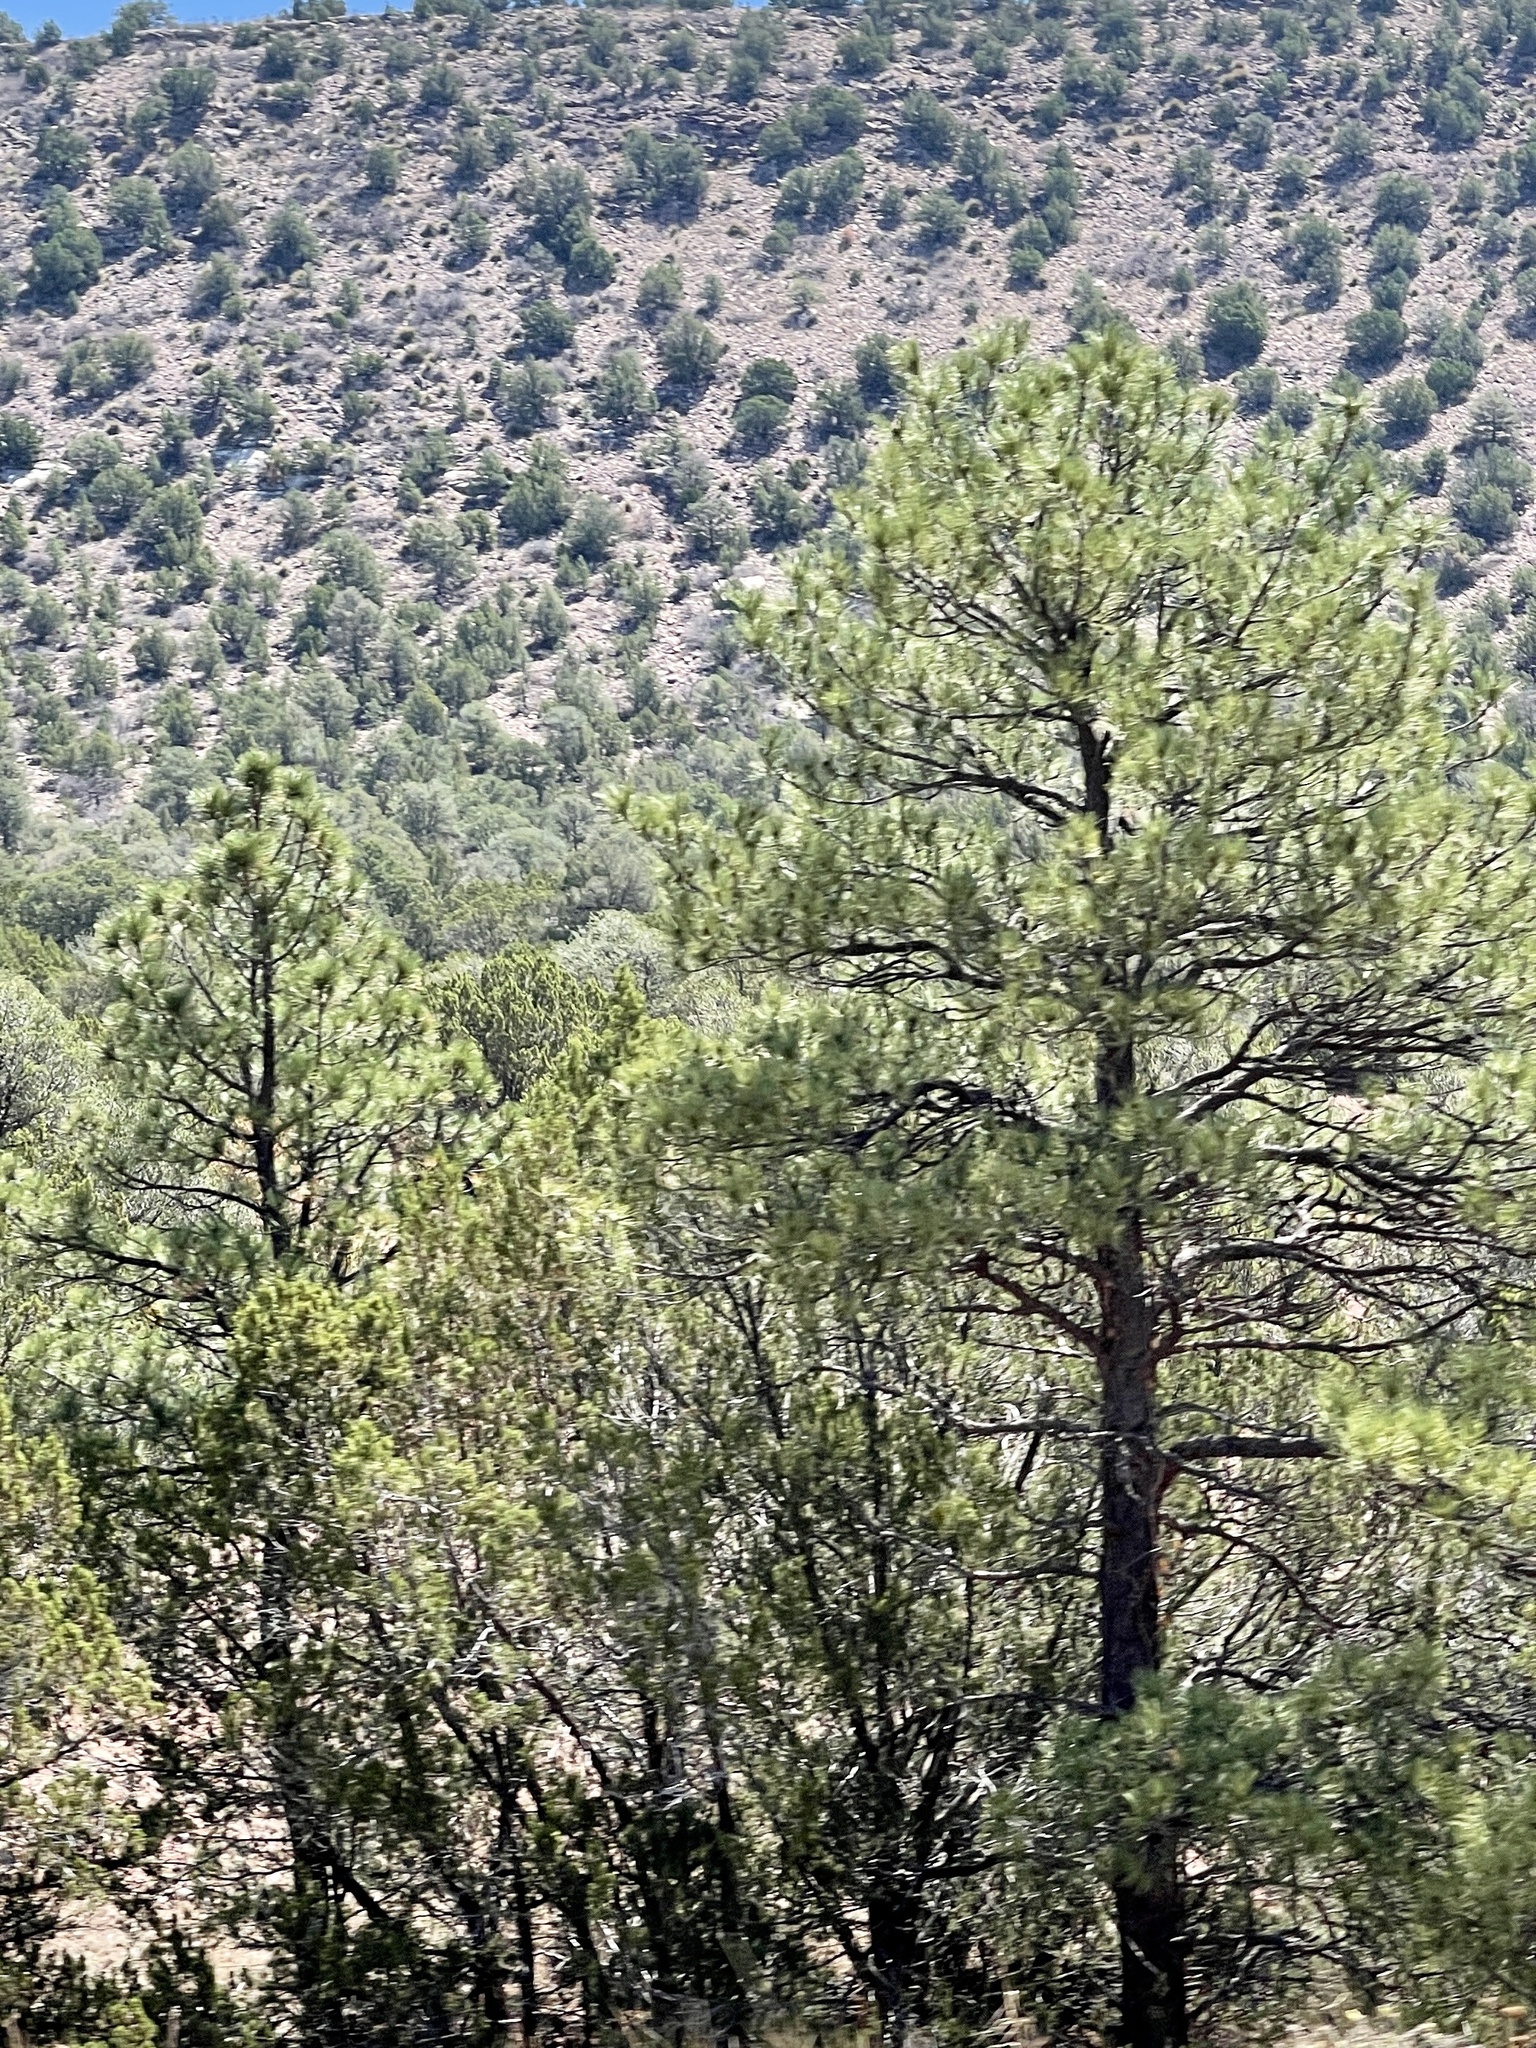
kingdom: Plantae
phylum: Tracheophyta
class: Pinopsida
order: Pinales
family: Pinaceae
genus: Pinus
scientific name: Pinus ponderosa
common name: Western yellow-pine
